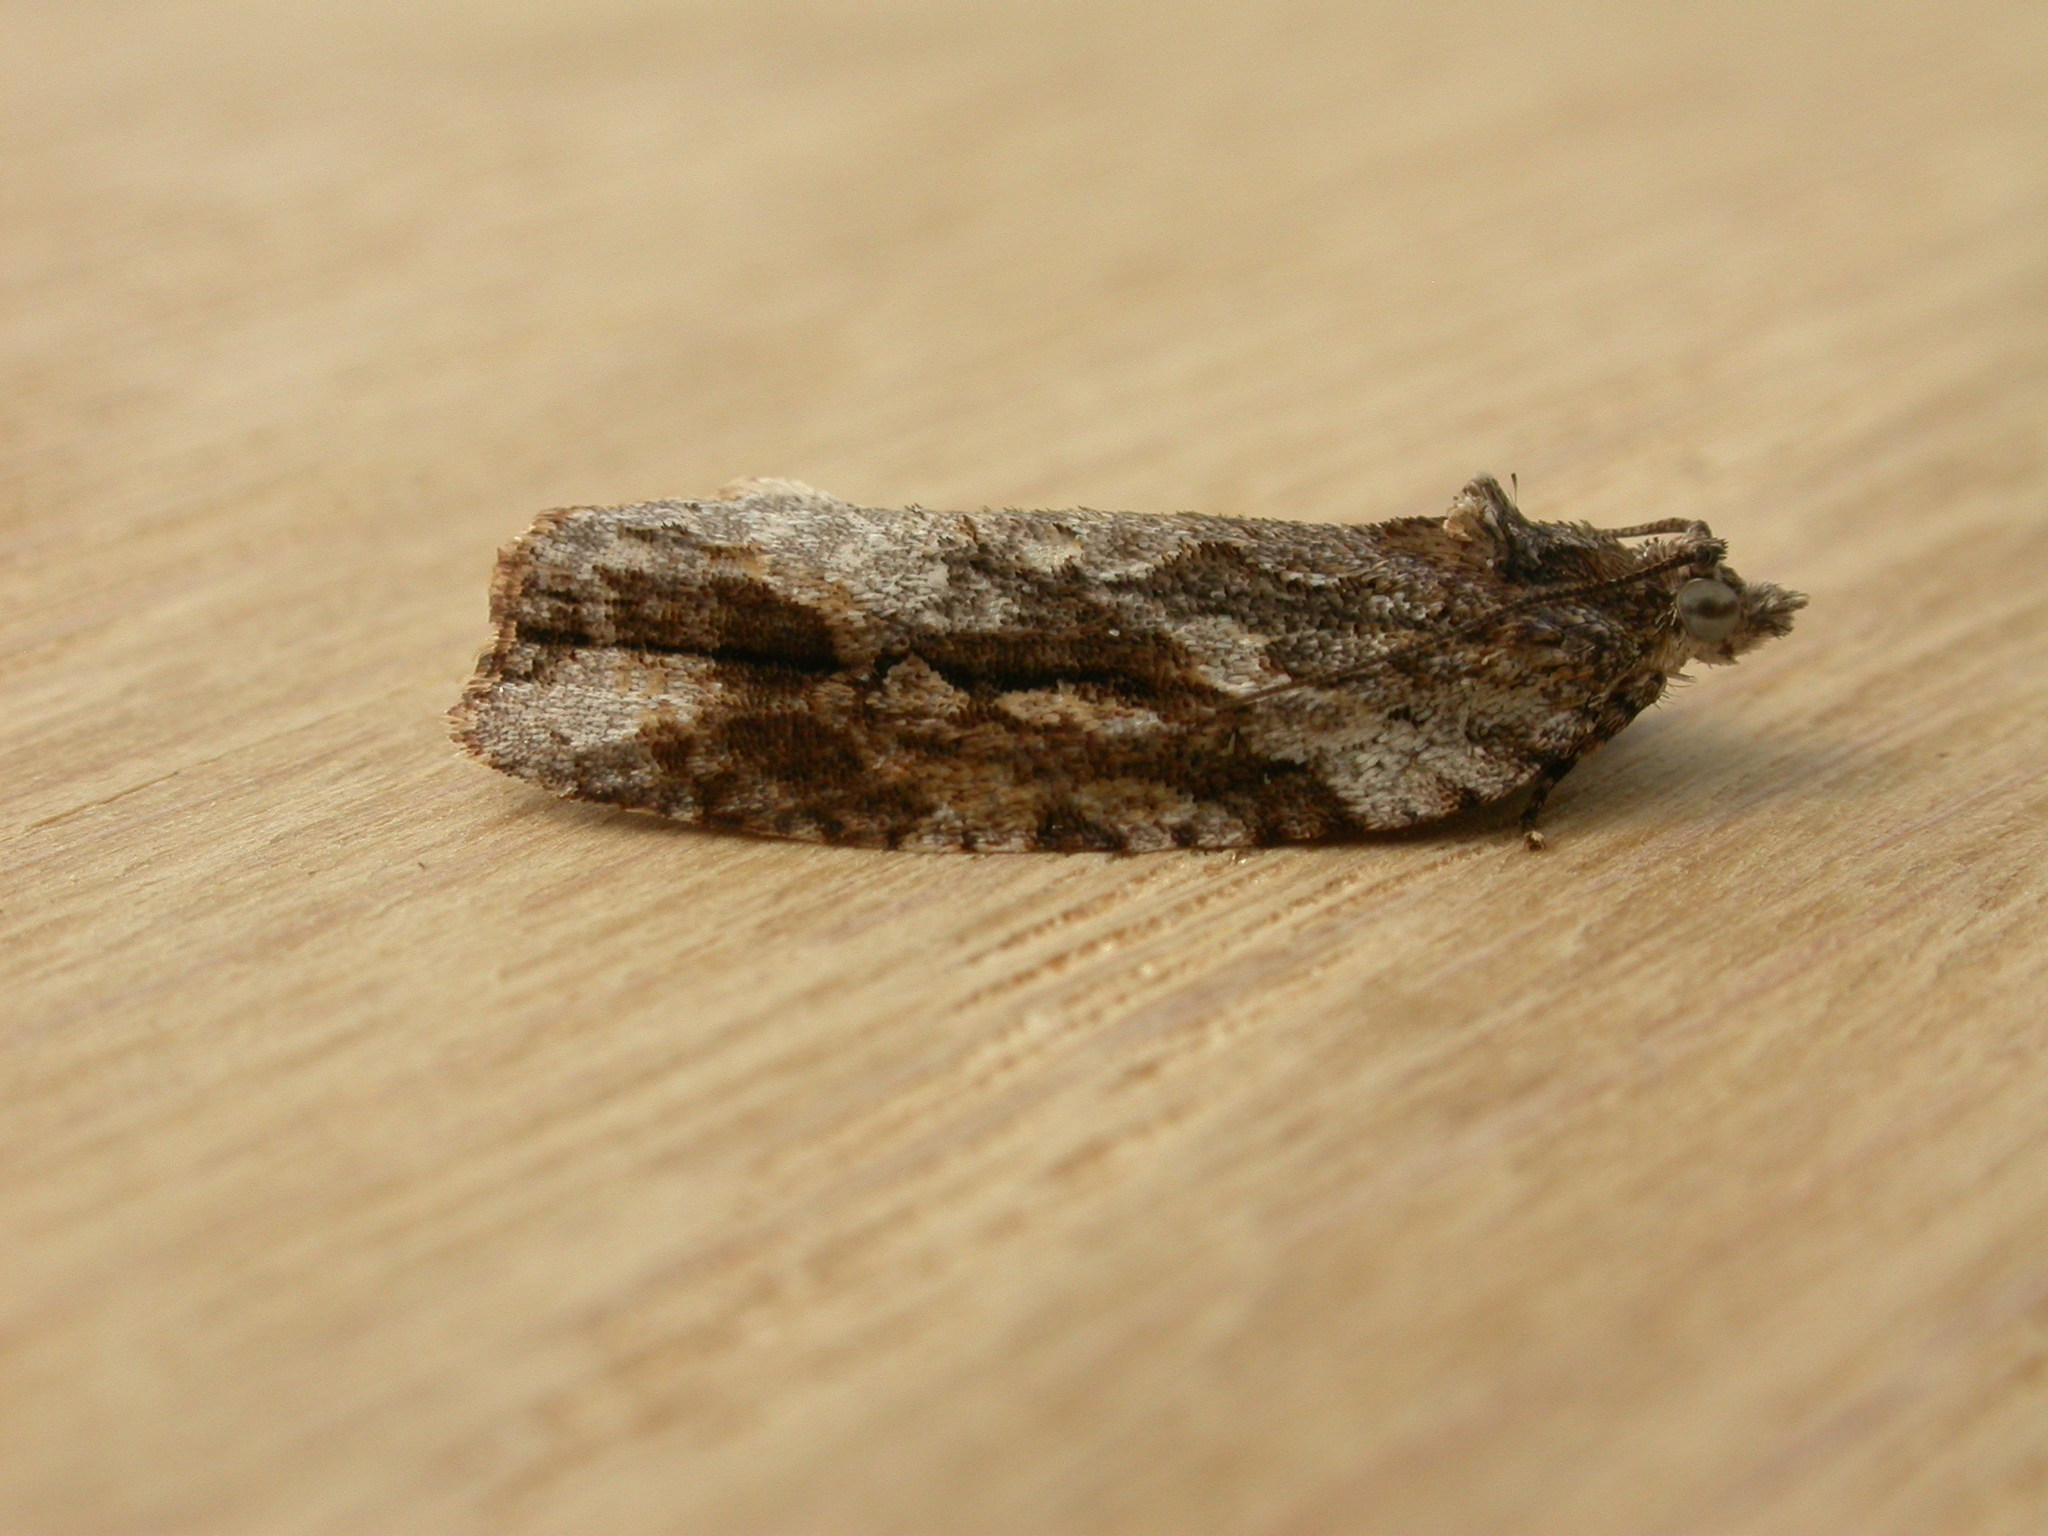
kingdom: Animalia
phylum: Arthropoda
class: Insecta
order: Lepidoptera
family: Tortricidae
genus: Thrincophora
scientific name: Thrincophora lignigerana
